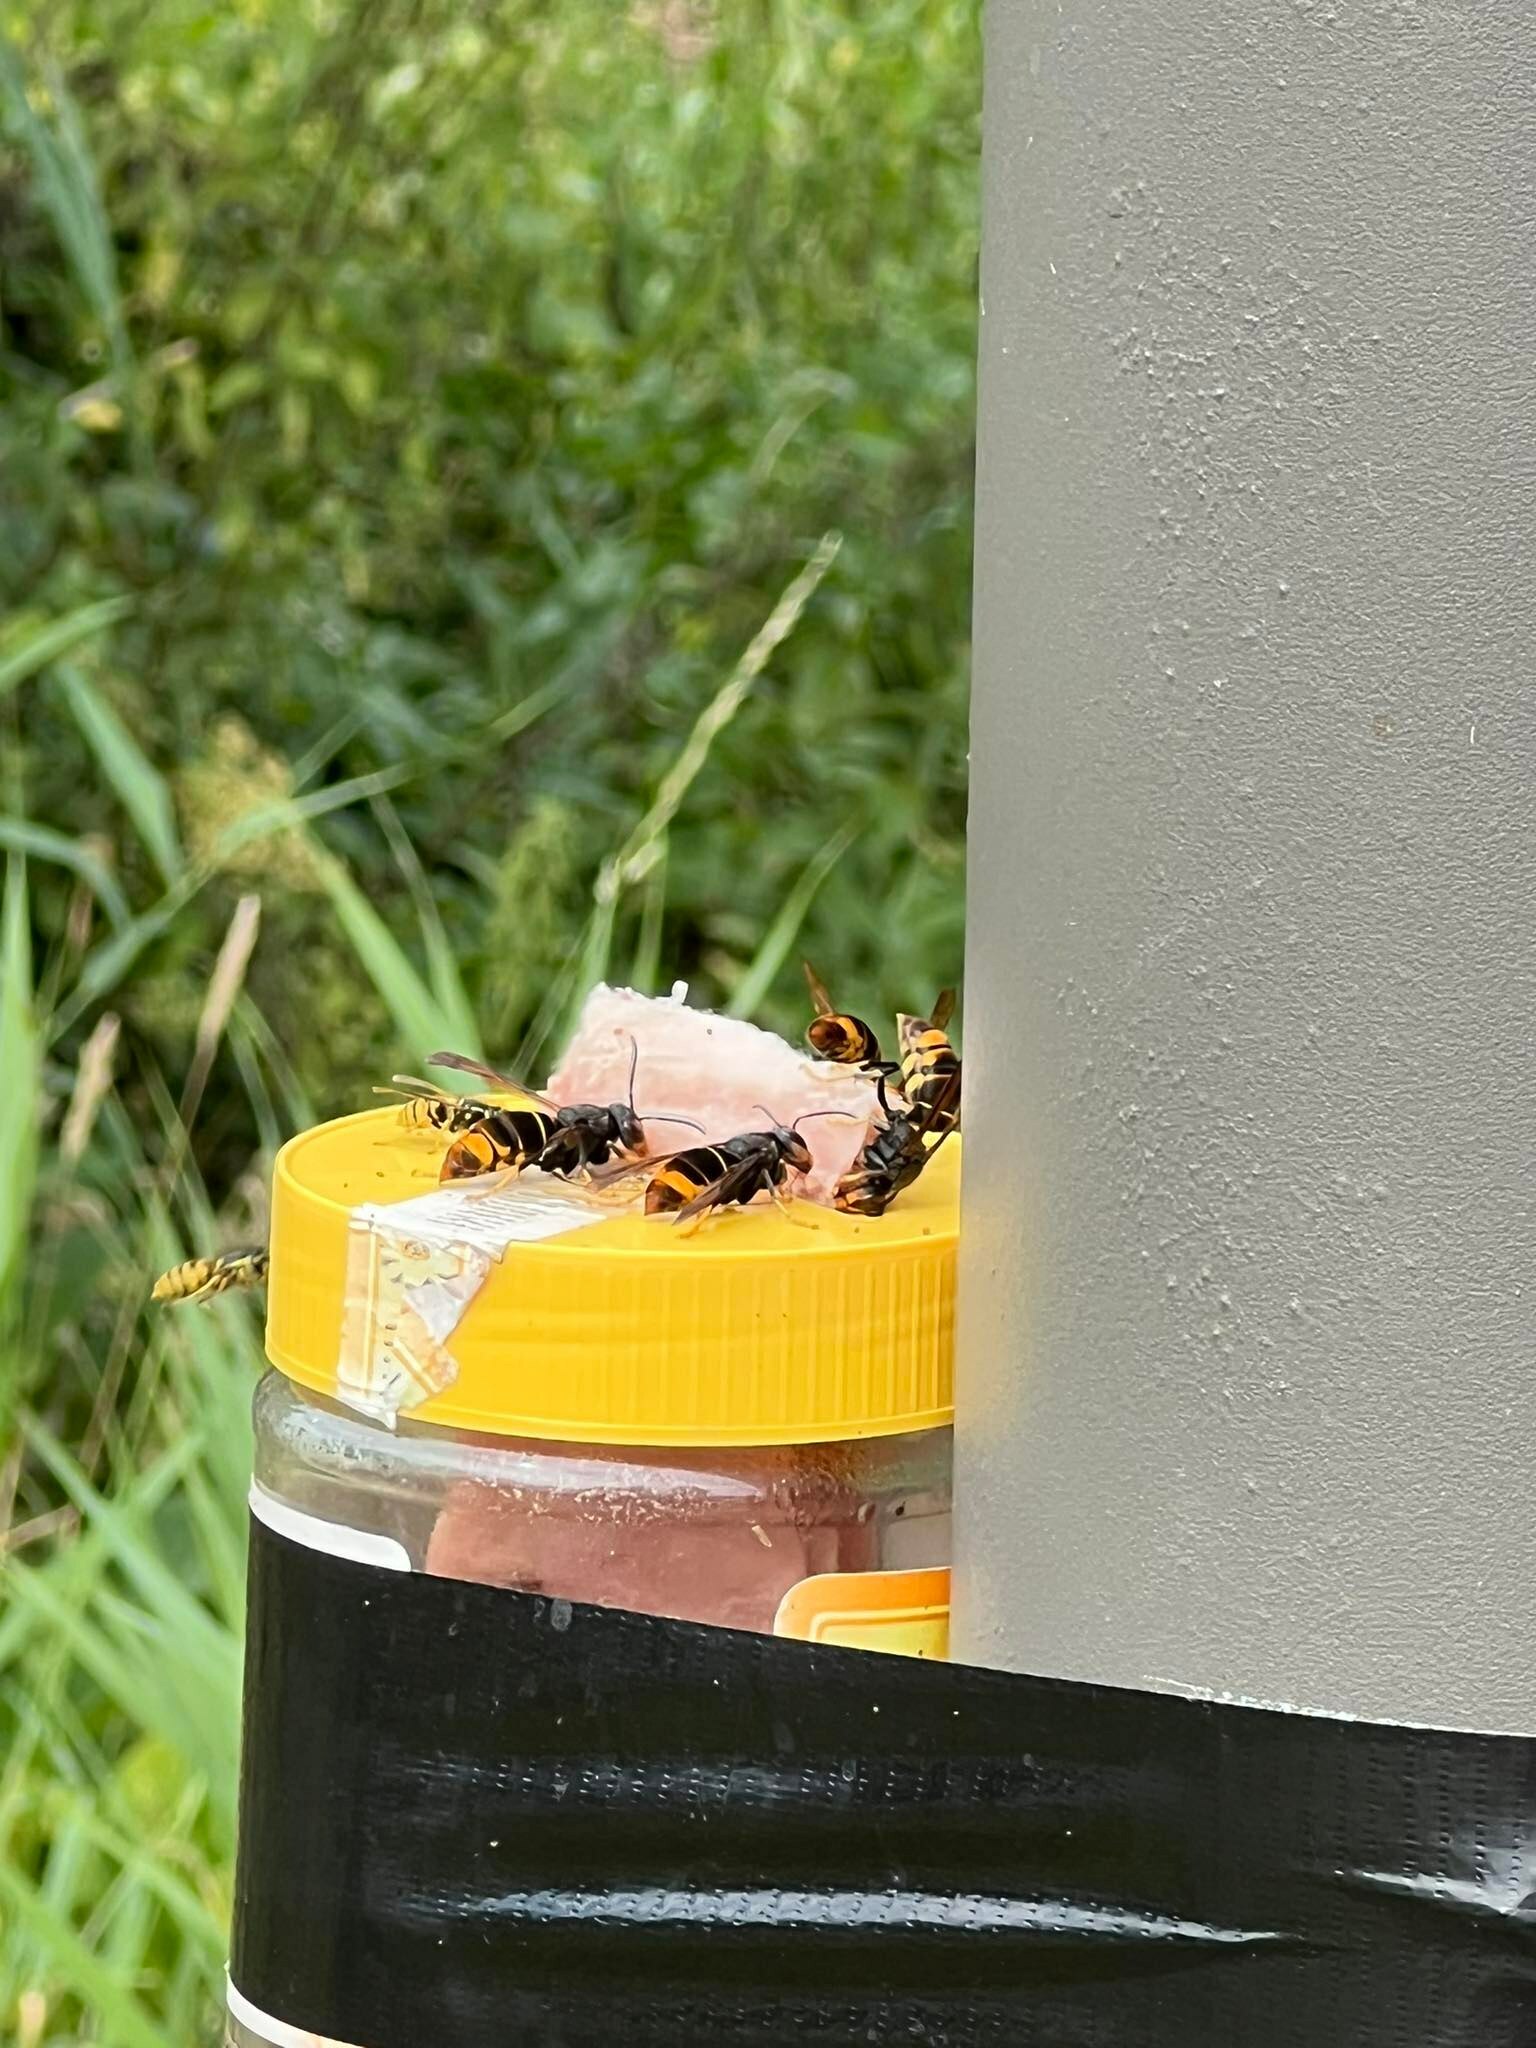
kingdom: Animalia
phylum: Arthropoda
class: Insecta
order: Hymenoptera
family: Vespidae
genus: Vespa
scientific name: Vespa velutina
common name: Asian hornet
